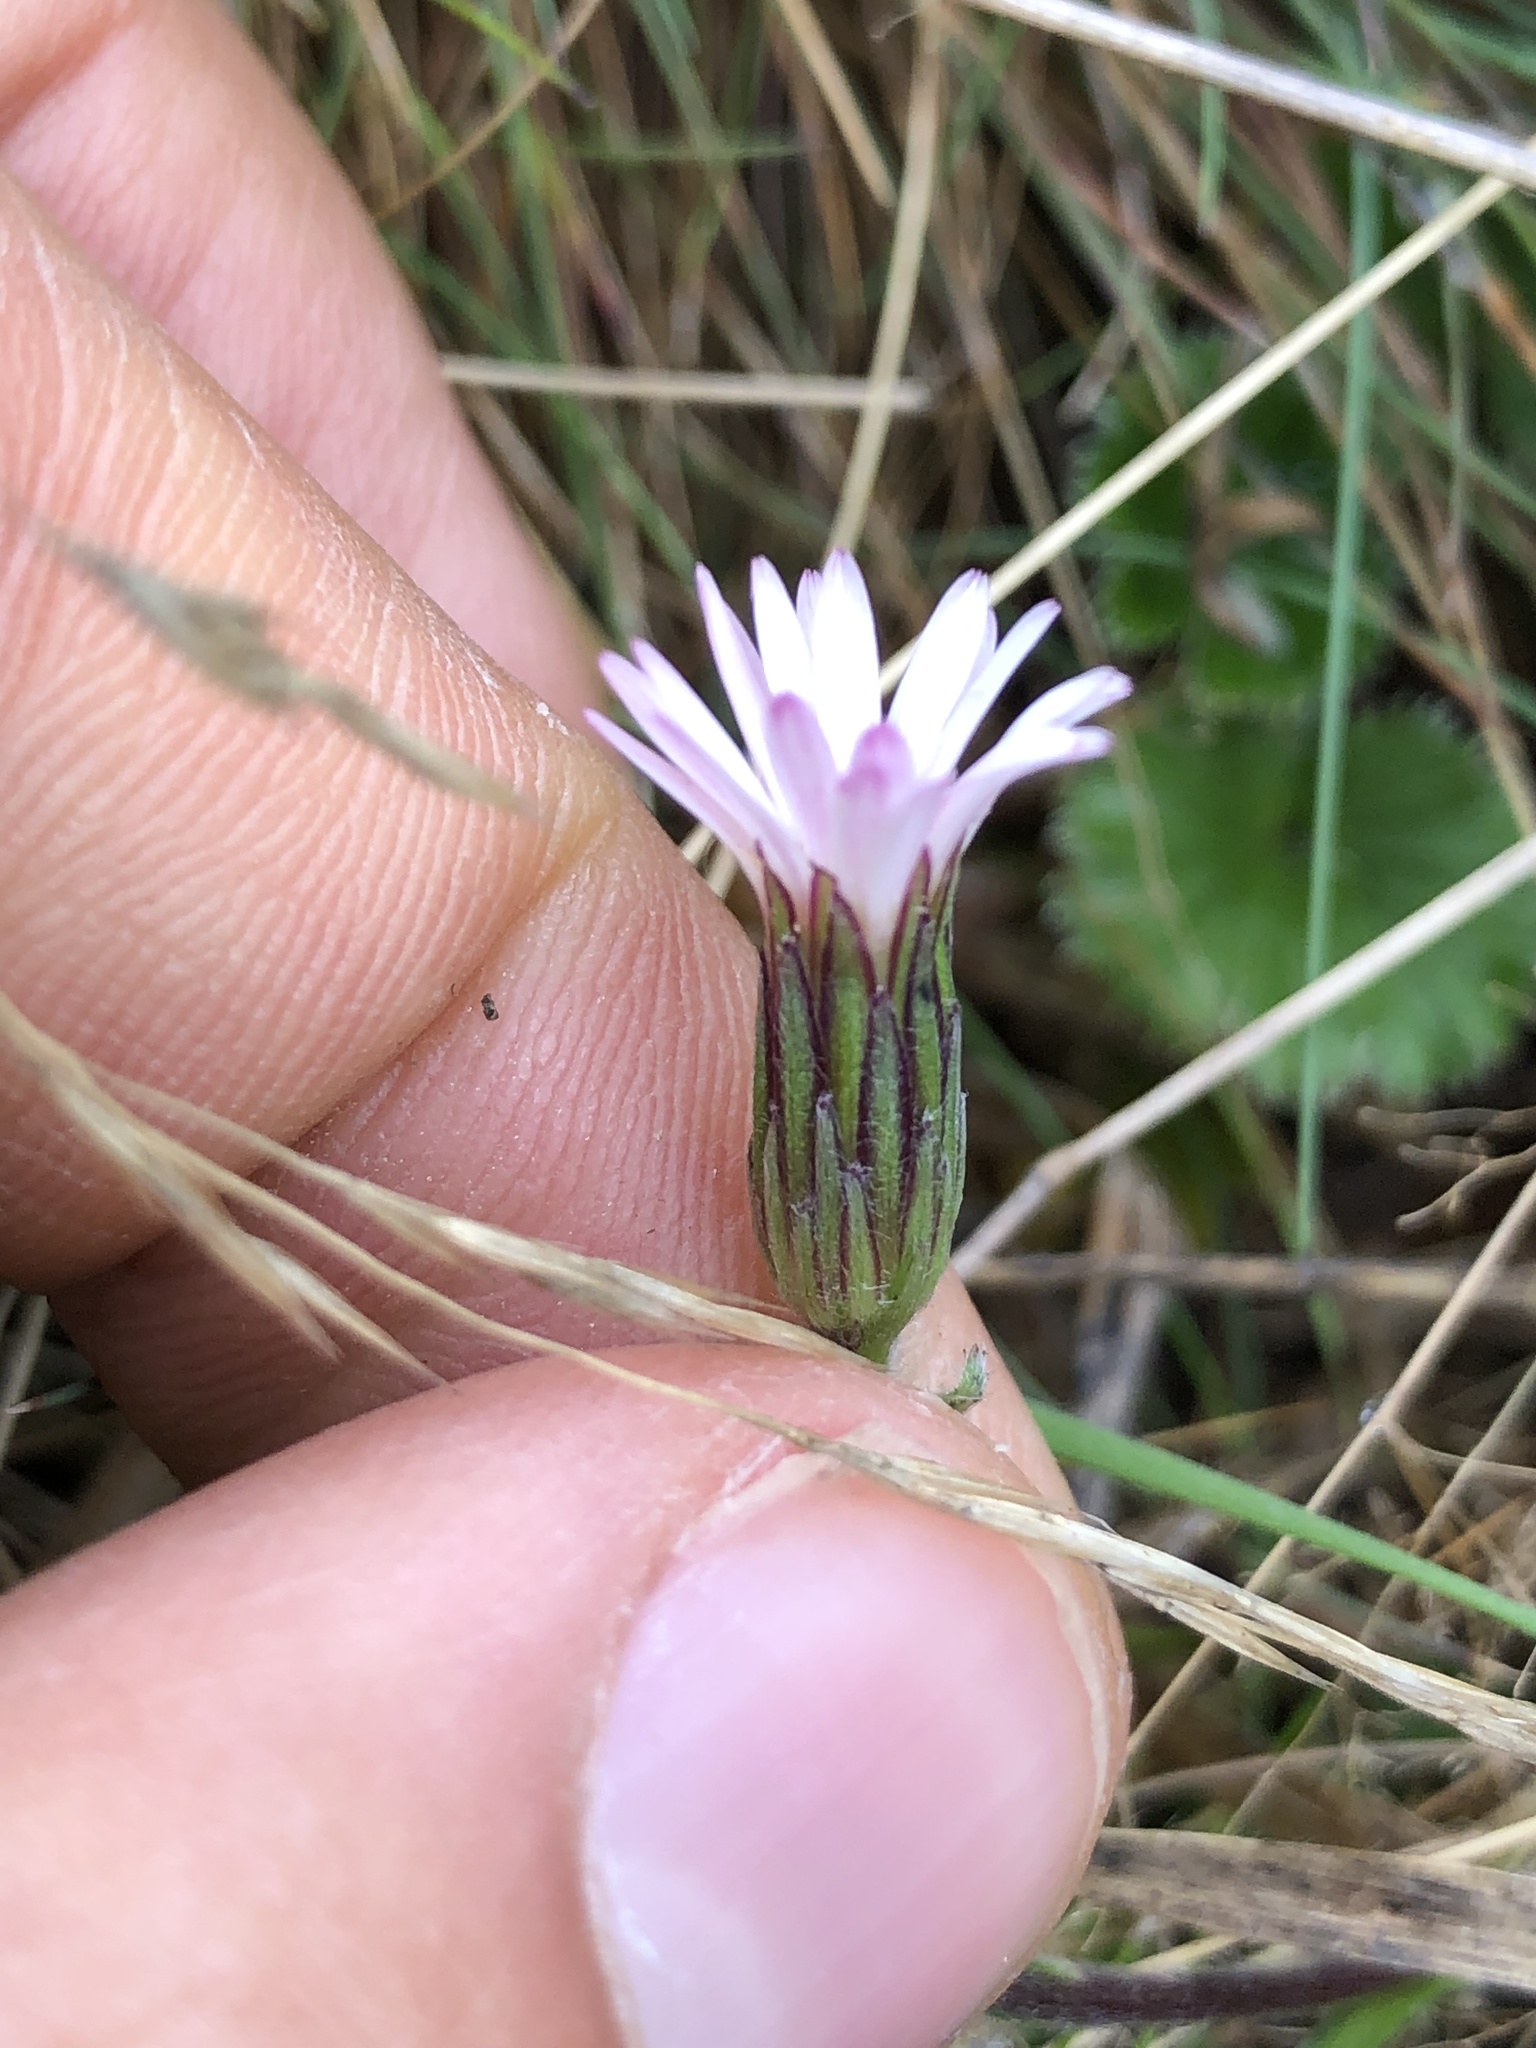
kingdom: Plantae
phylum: Tracheophyta
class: Magnoliopsida
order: Asterales
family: Asteraceae
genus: Noticastrum
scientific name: Noticastrum marginatum
